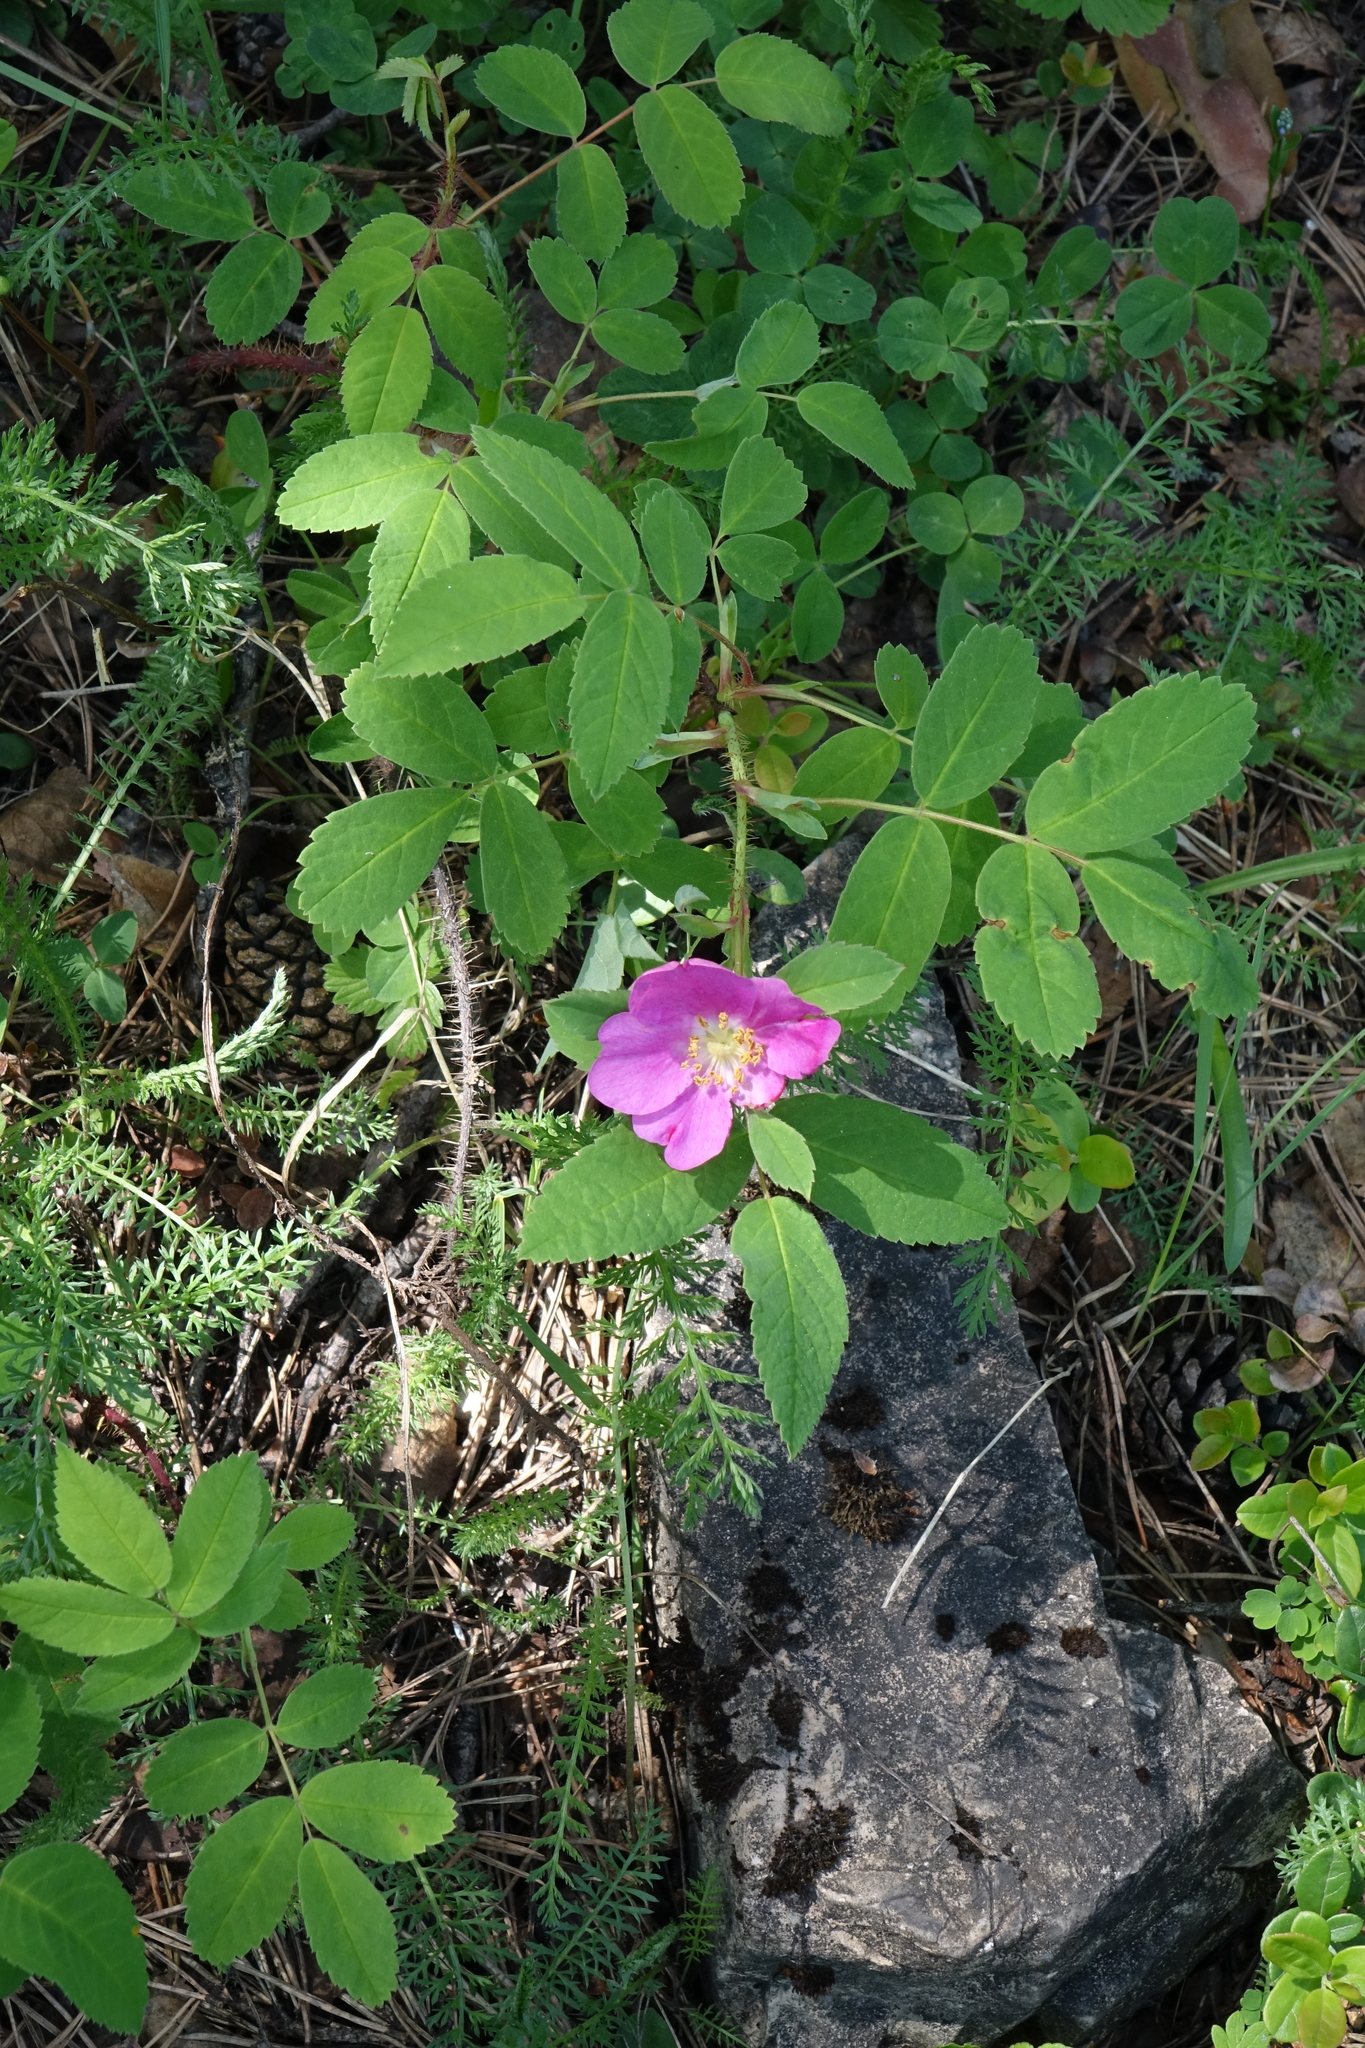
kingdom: Plantae
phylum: Tracheophyta
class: Magnoliopsida
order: Rosales
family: Rosaceae
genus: Rosa
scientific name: Rosa acicularis
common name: Prickly rose
